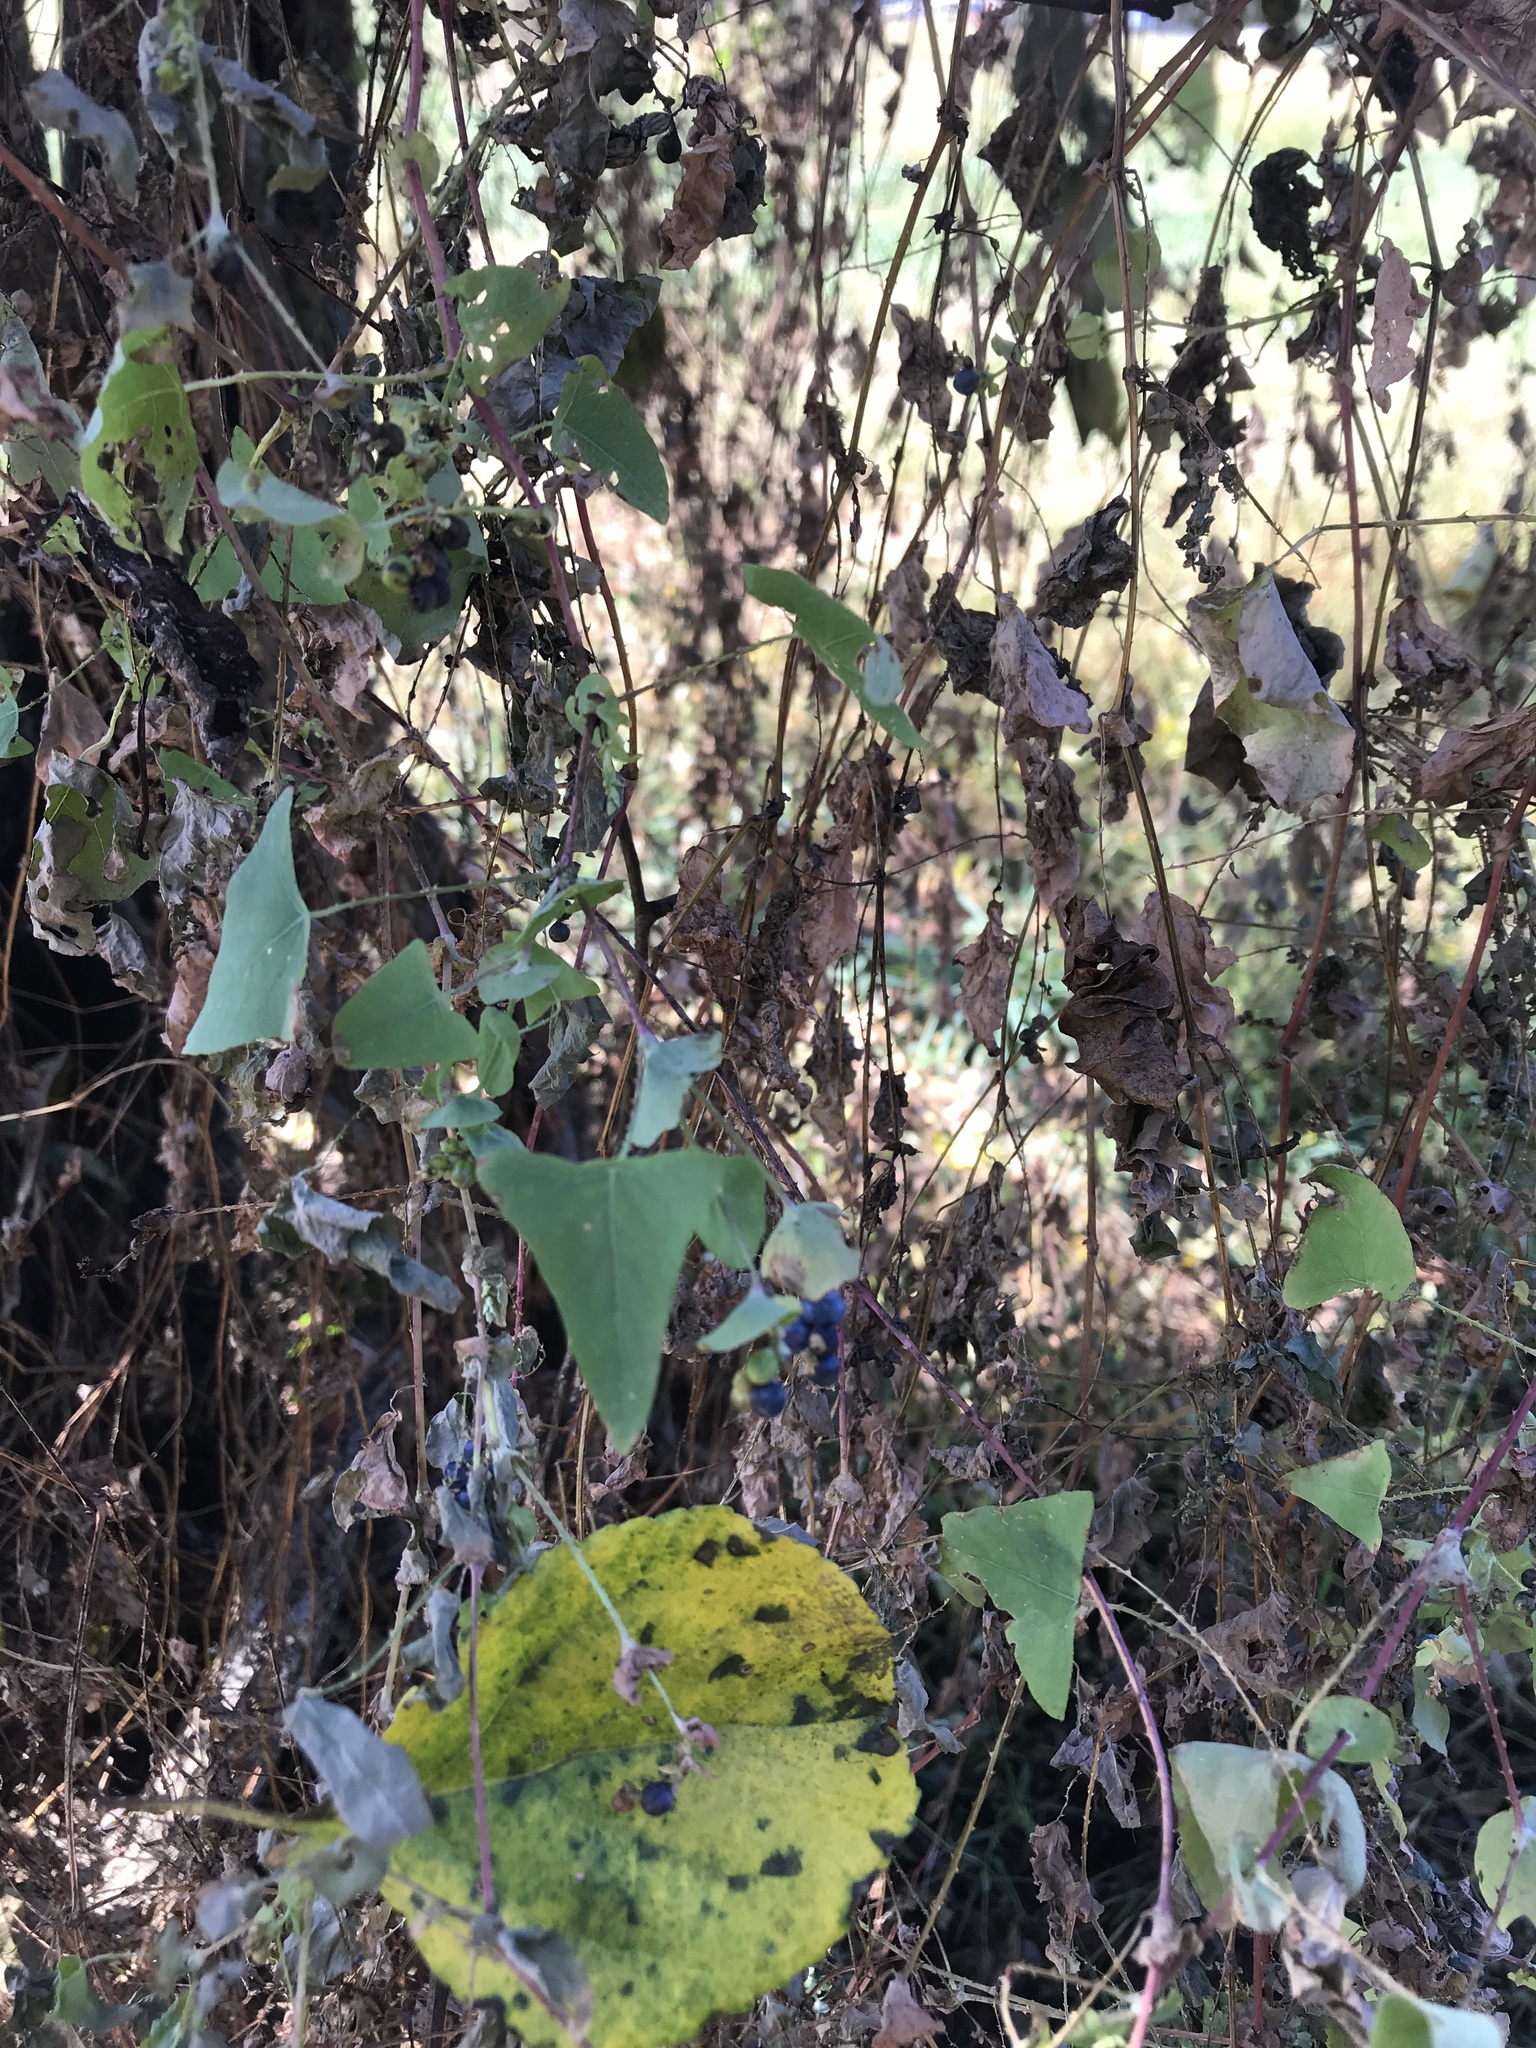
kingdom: Plantae
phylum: Tracheophyta
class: Magnoliopsida
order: Caryophyllales
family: Polygonaceae
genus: Persicaria
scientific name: Persicaria perfoliata
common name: Asiatic tearthumb
